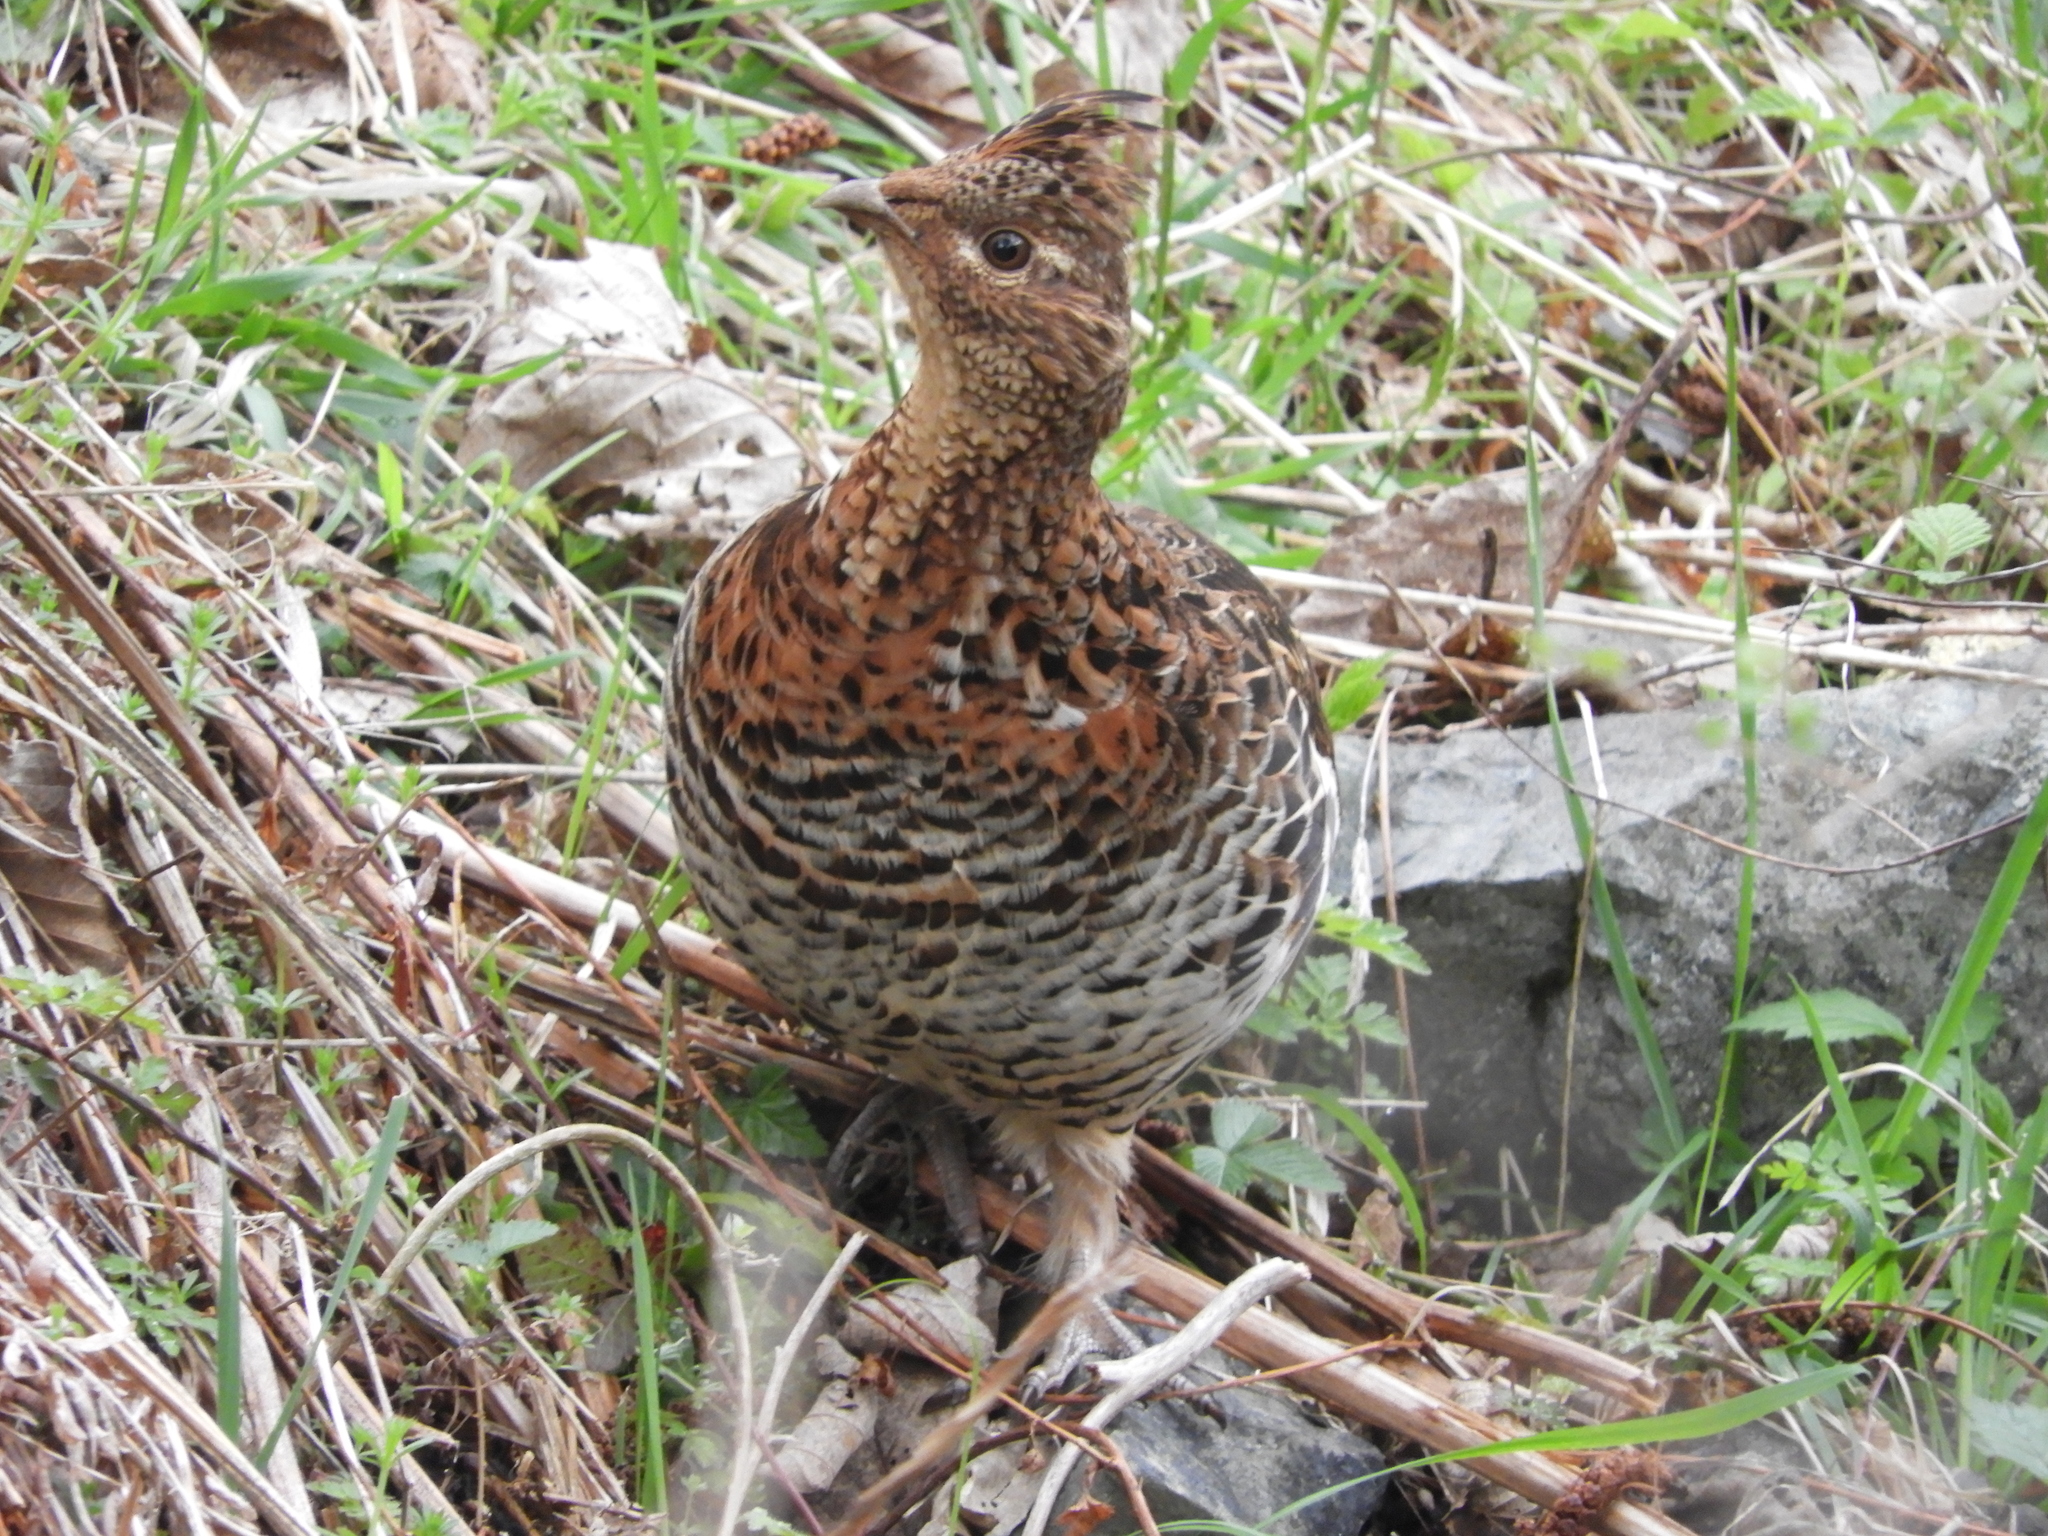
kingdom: Animalia
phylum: Chordata
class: Aves
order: Galliformes
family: Phasianidae
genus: Bonasa
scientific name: Bonasa umbellus
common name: Ruffed grouse
